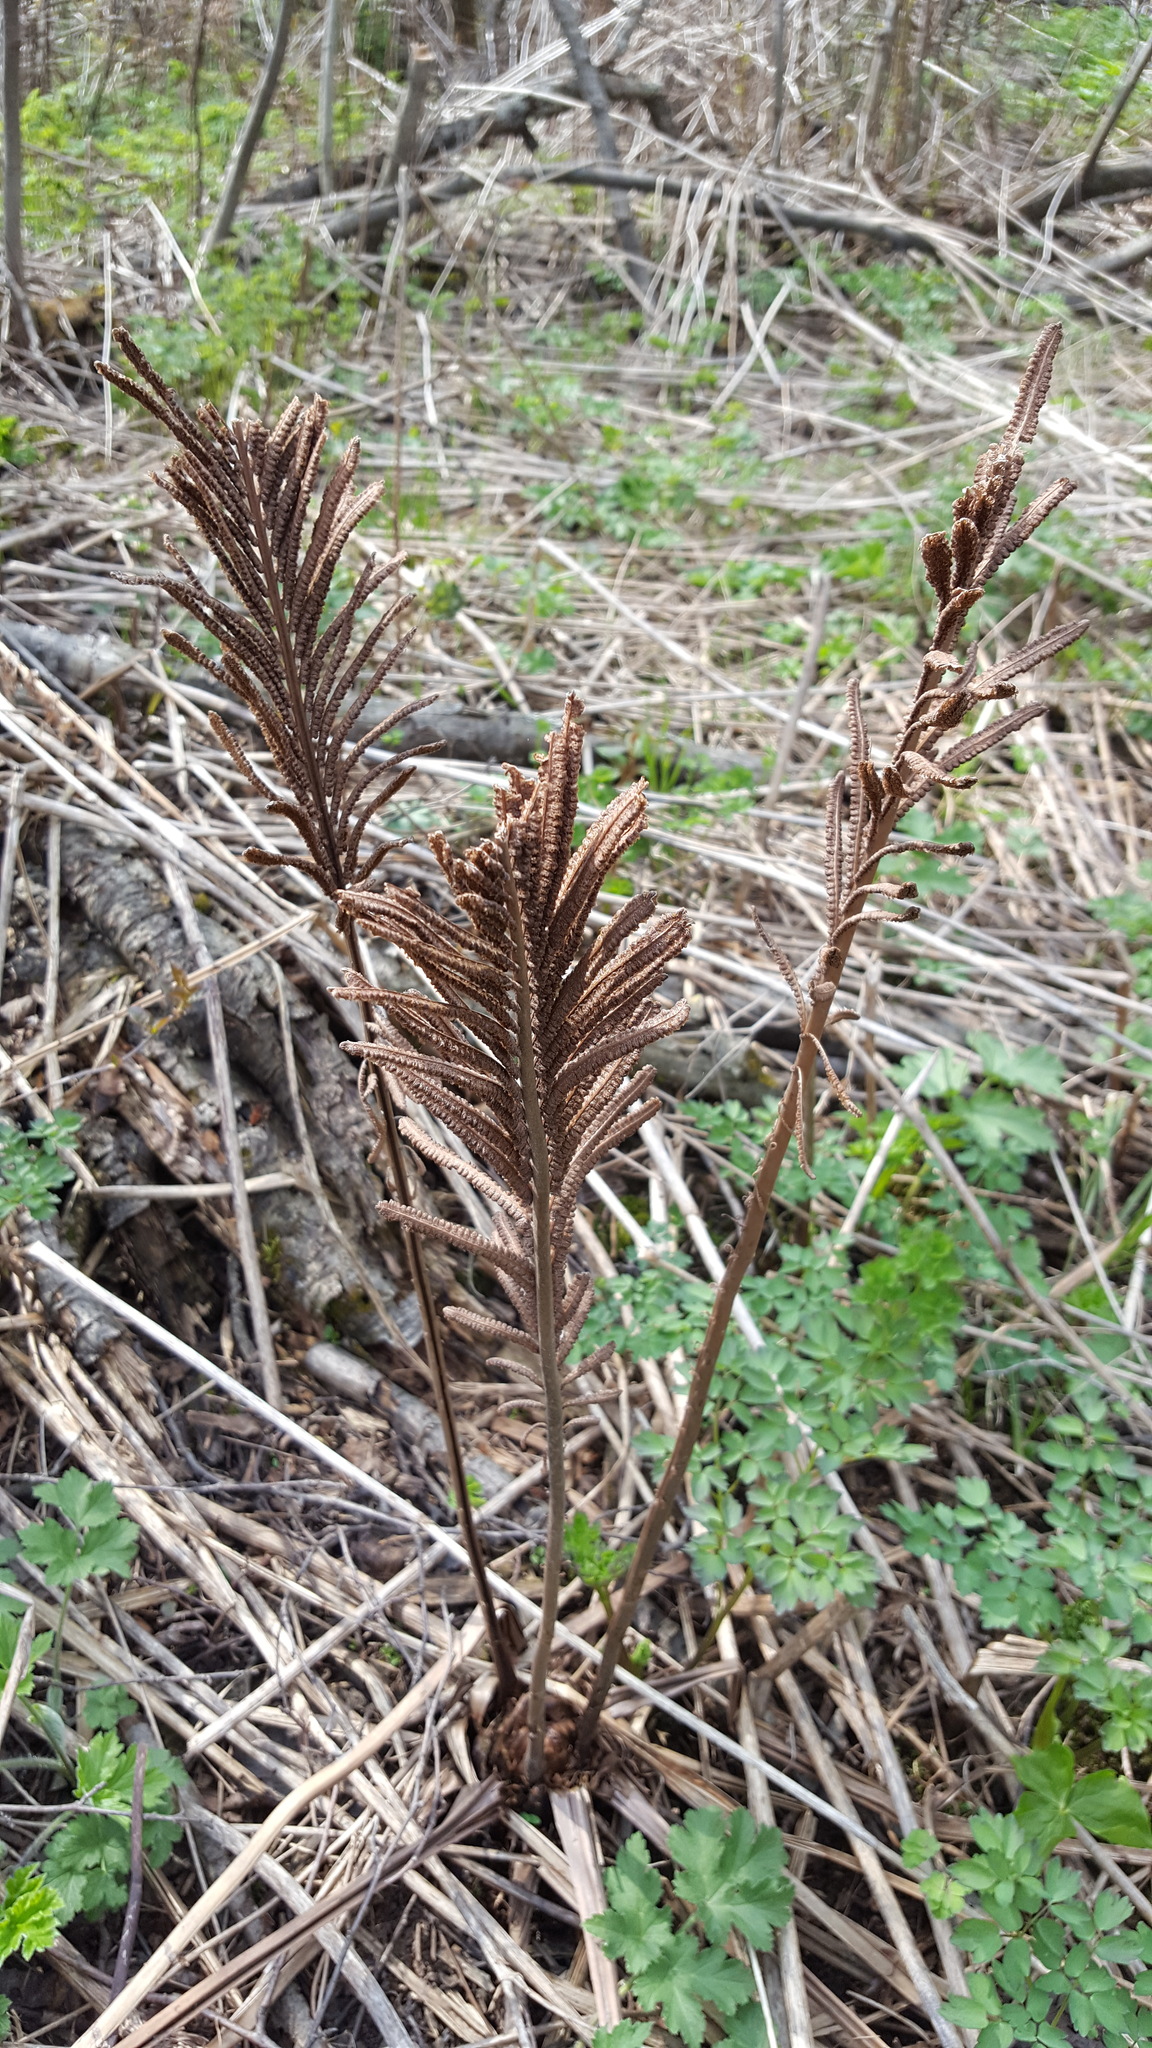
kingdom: Plantae
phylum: Tracheophyta
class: Polypodiopsida
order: Polypodiales
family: Onocleaceae
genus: Matteuccia
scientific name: Matteuccia struthiopteris
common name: Ostrich fern
